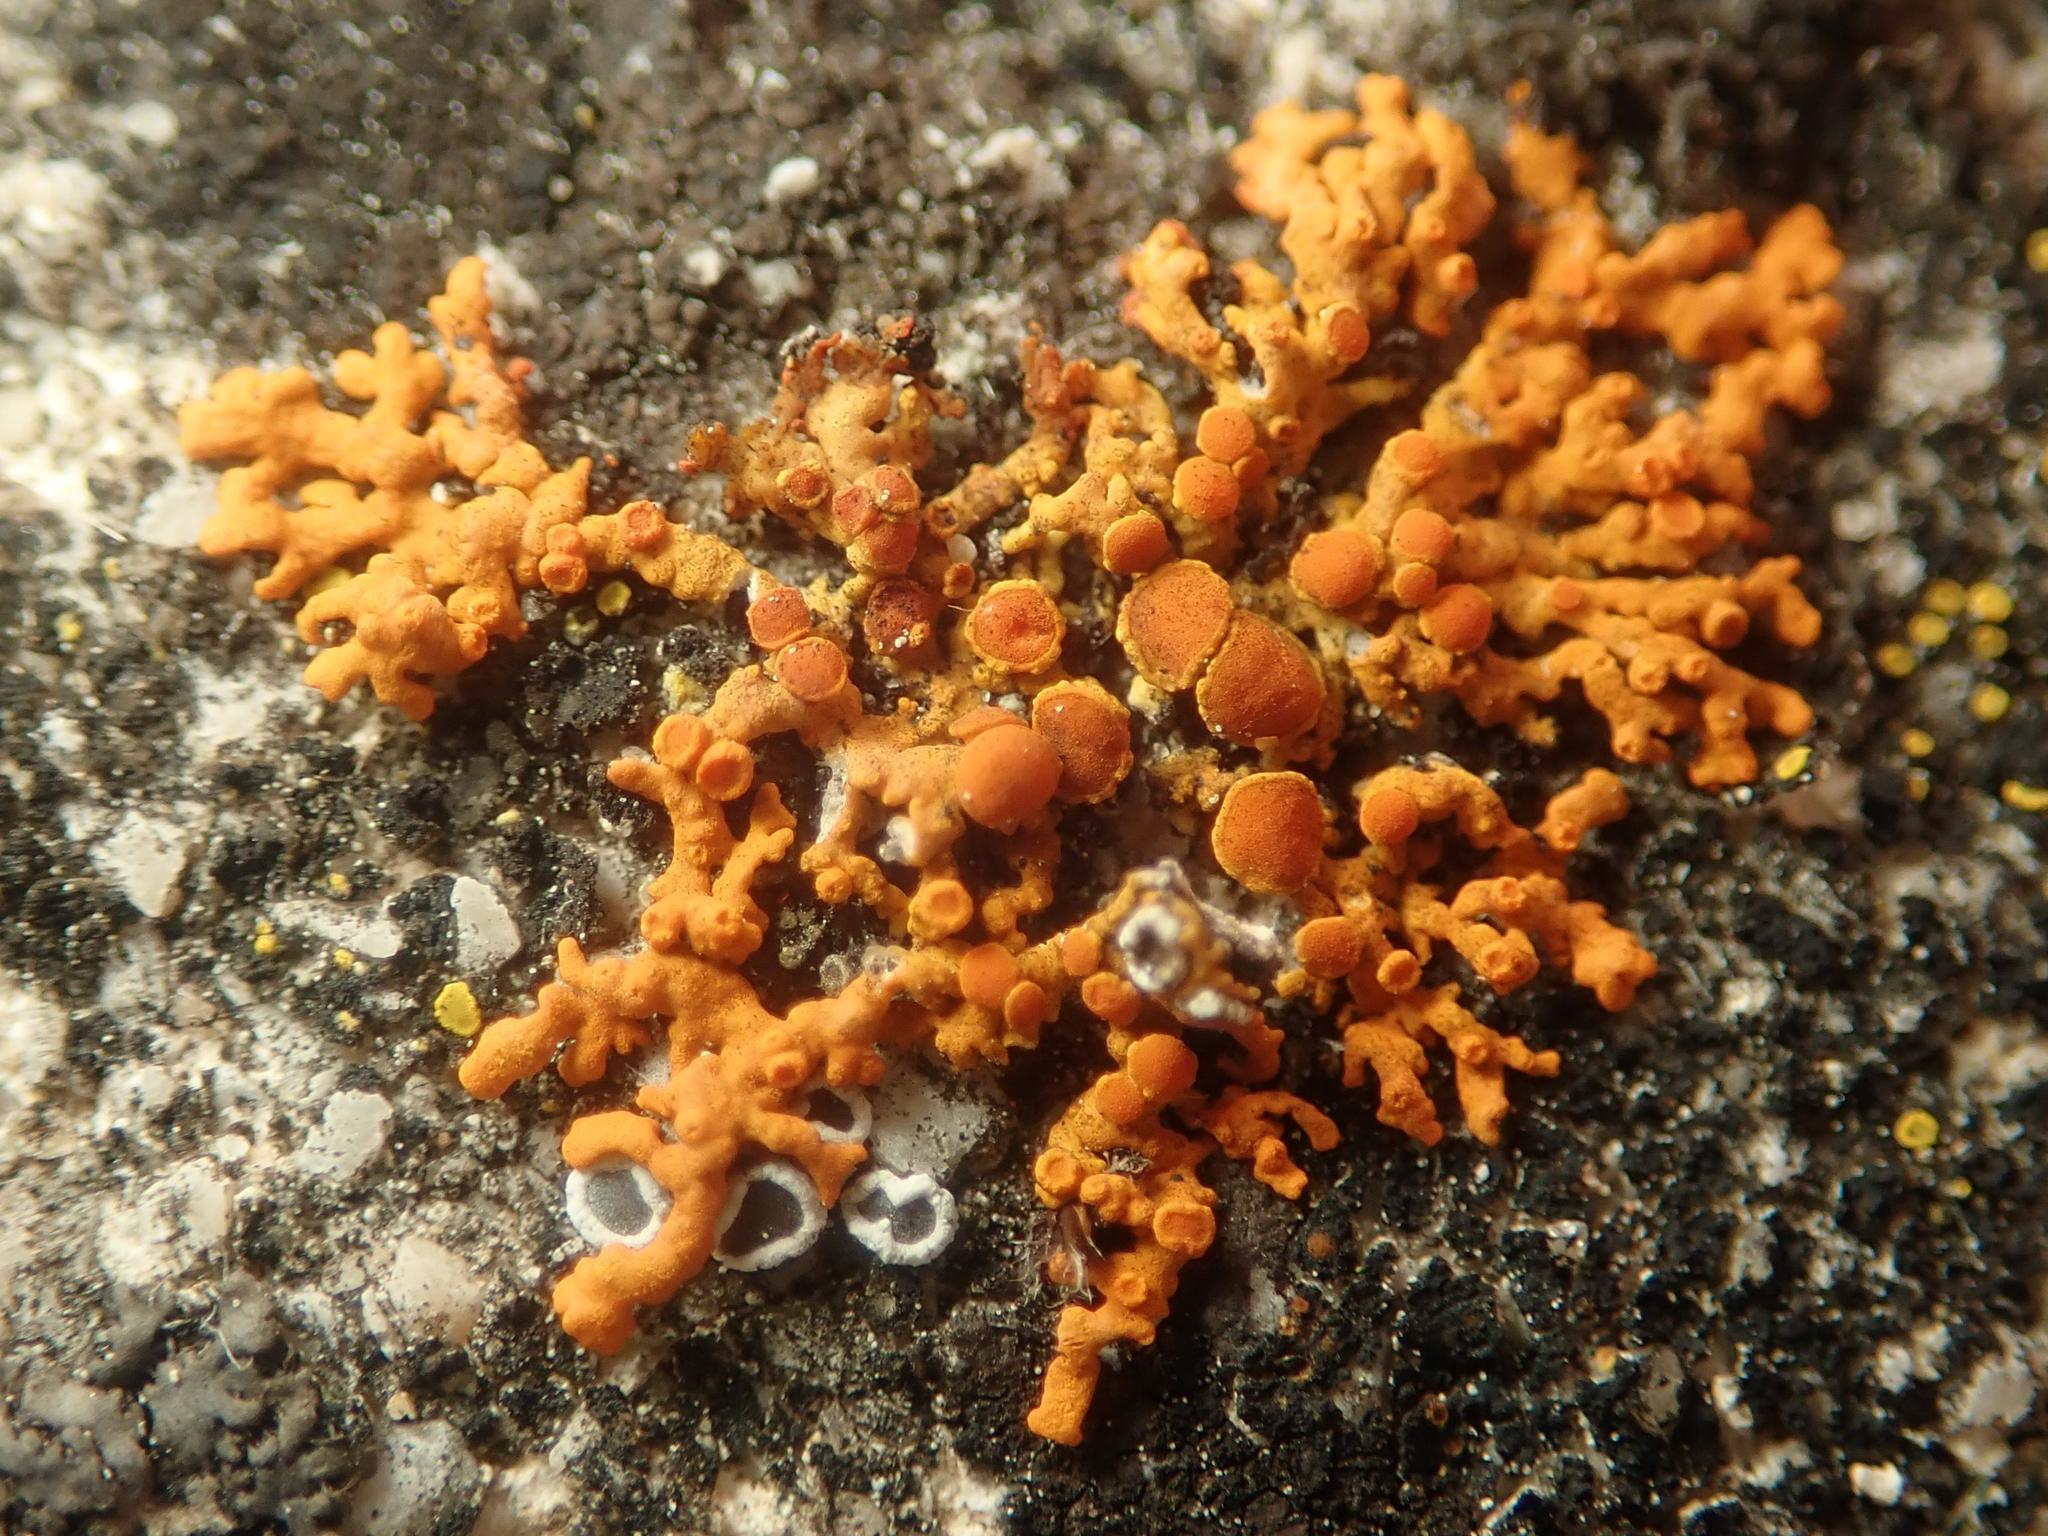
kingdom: Fungi
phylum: Ascomycota
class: Lecanoromycetes
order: Teloschistales
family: Teloschistaceae
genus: Xanthoria
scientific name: Xanthoria elegans
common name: Elegant sunburst lichen
